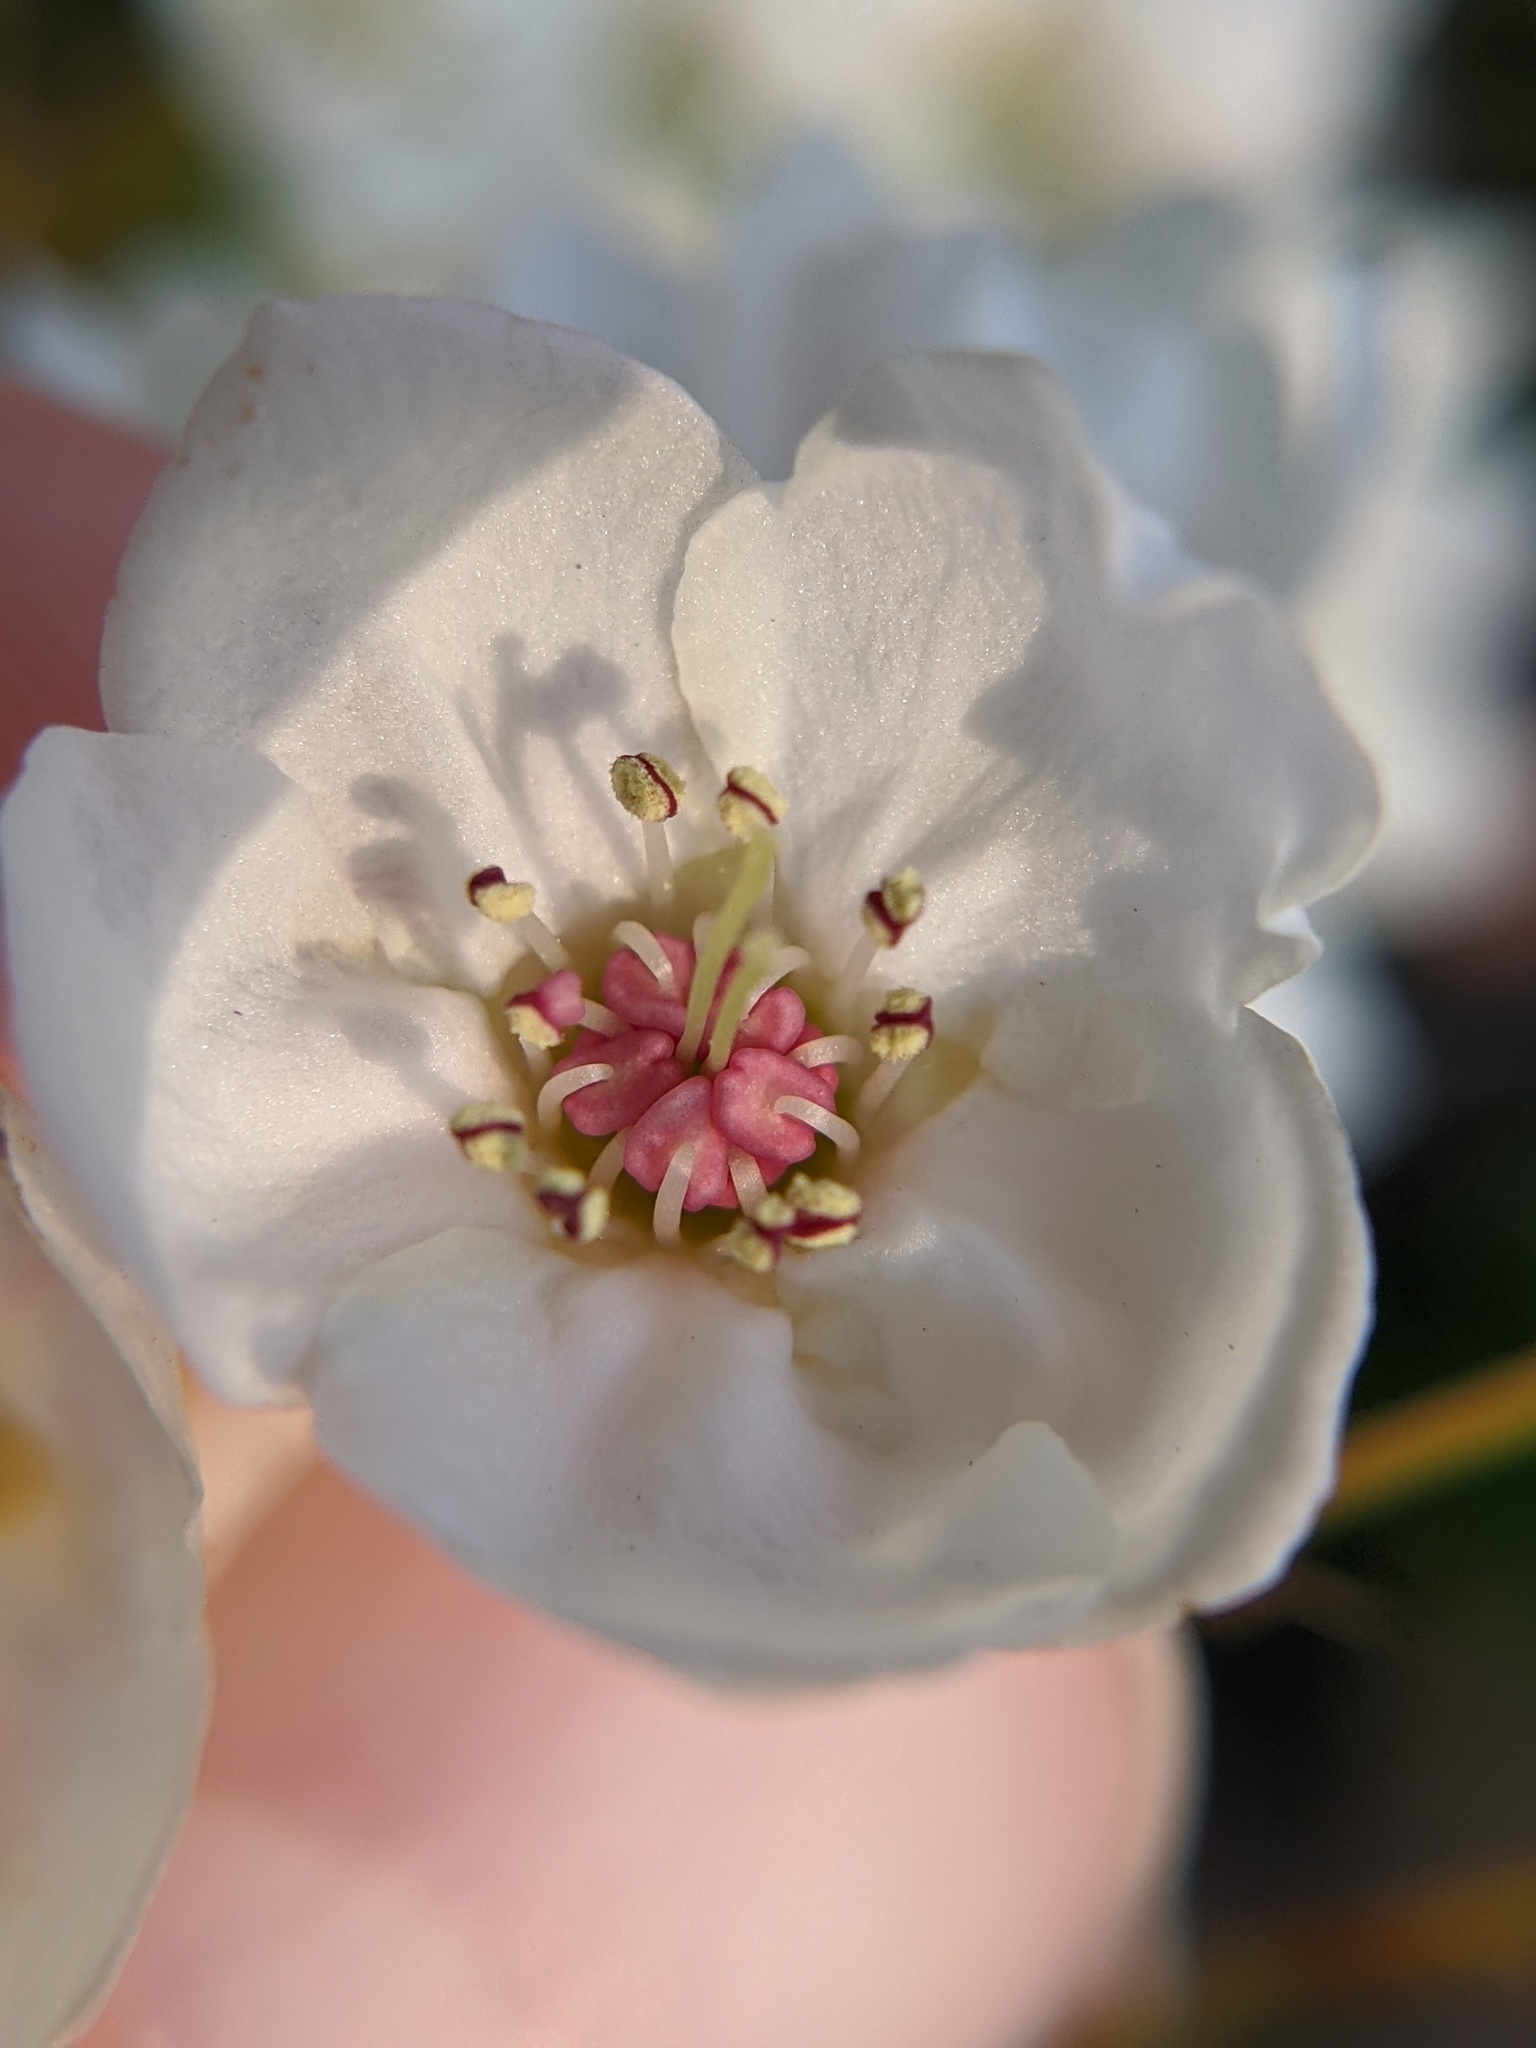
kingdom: Plantae
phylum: Tracheophyta
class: Magnoliopsida
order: Rosales
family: Rosaceae
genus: Pyrus
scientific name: Pyrus calleryana
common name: Callery pear
